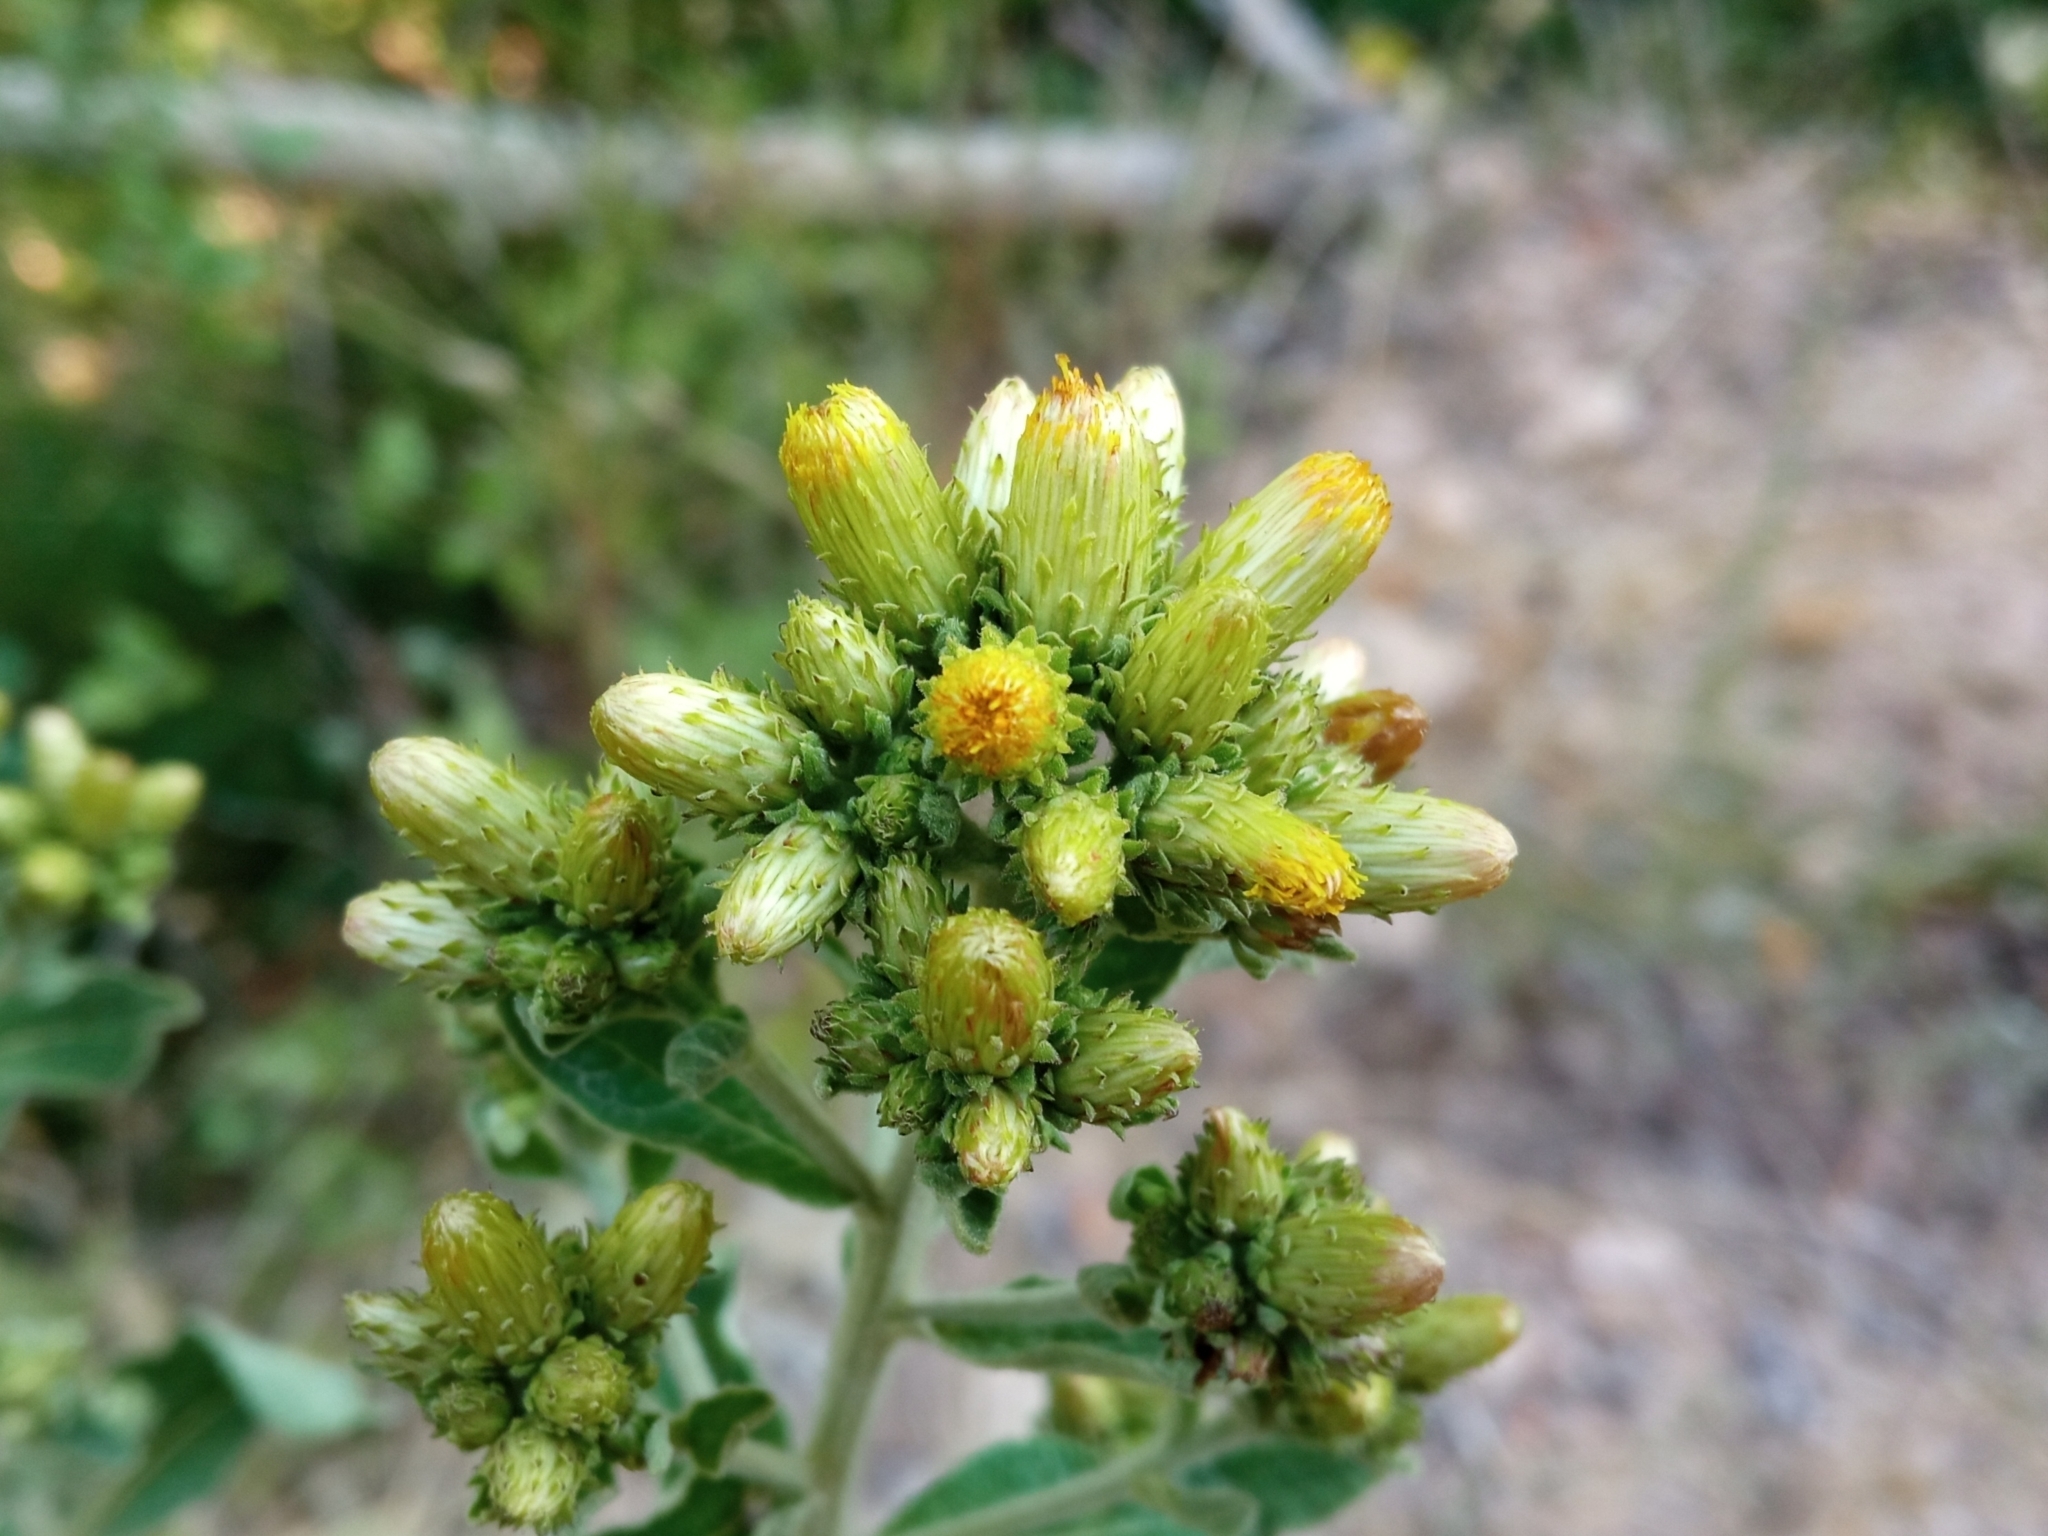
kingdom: Plantae
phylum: Tracheophyta
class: Magnoliopsida
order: Asterales
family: Asteraceae
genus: Pentanema
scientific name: Pentanema squarrosum
